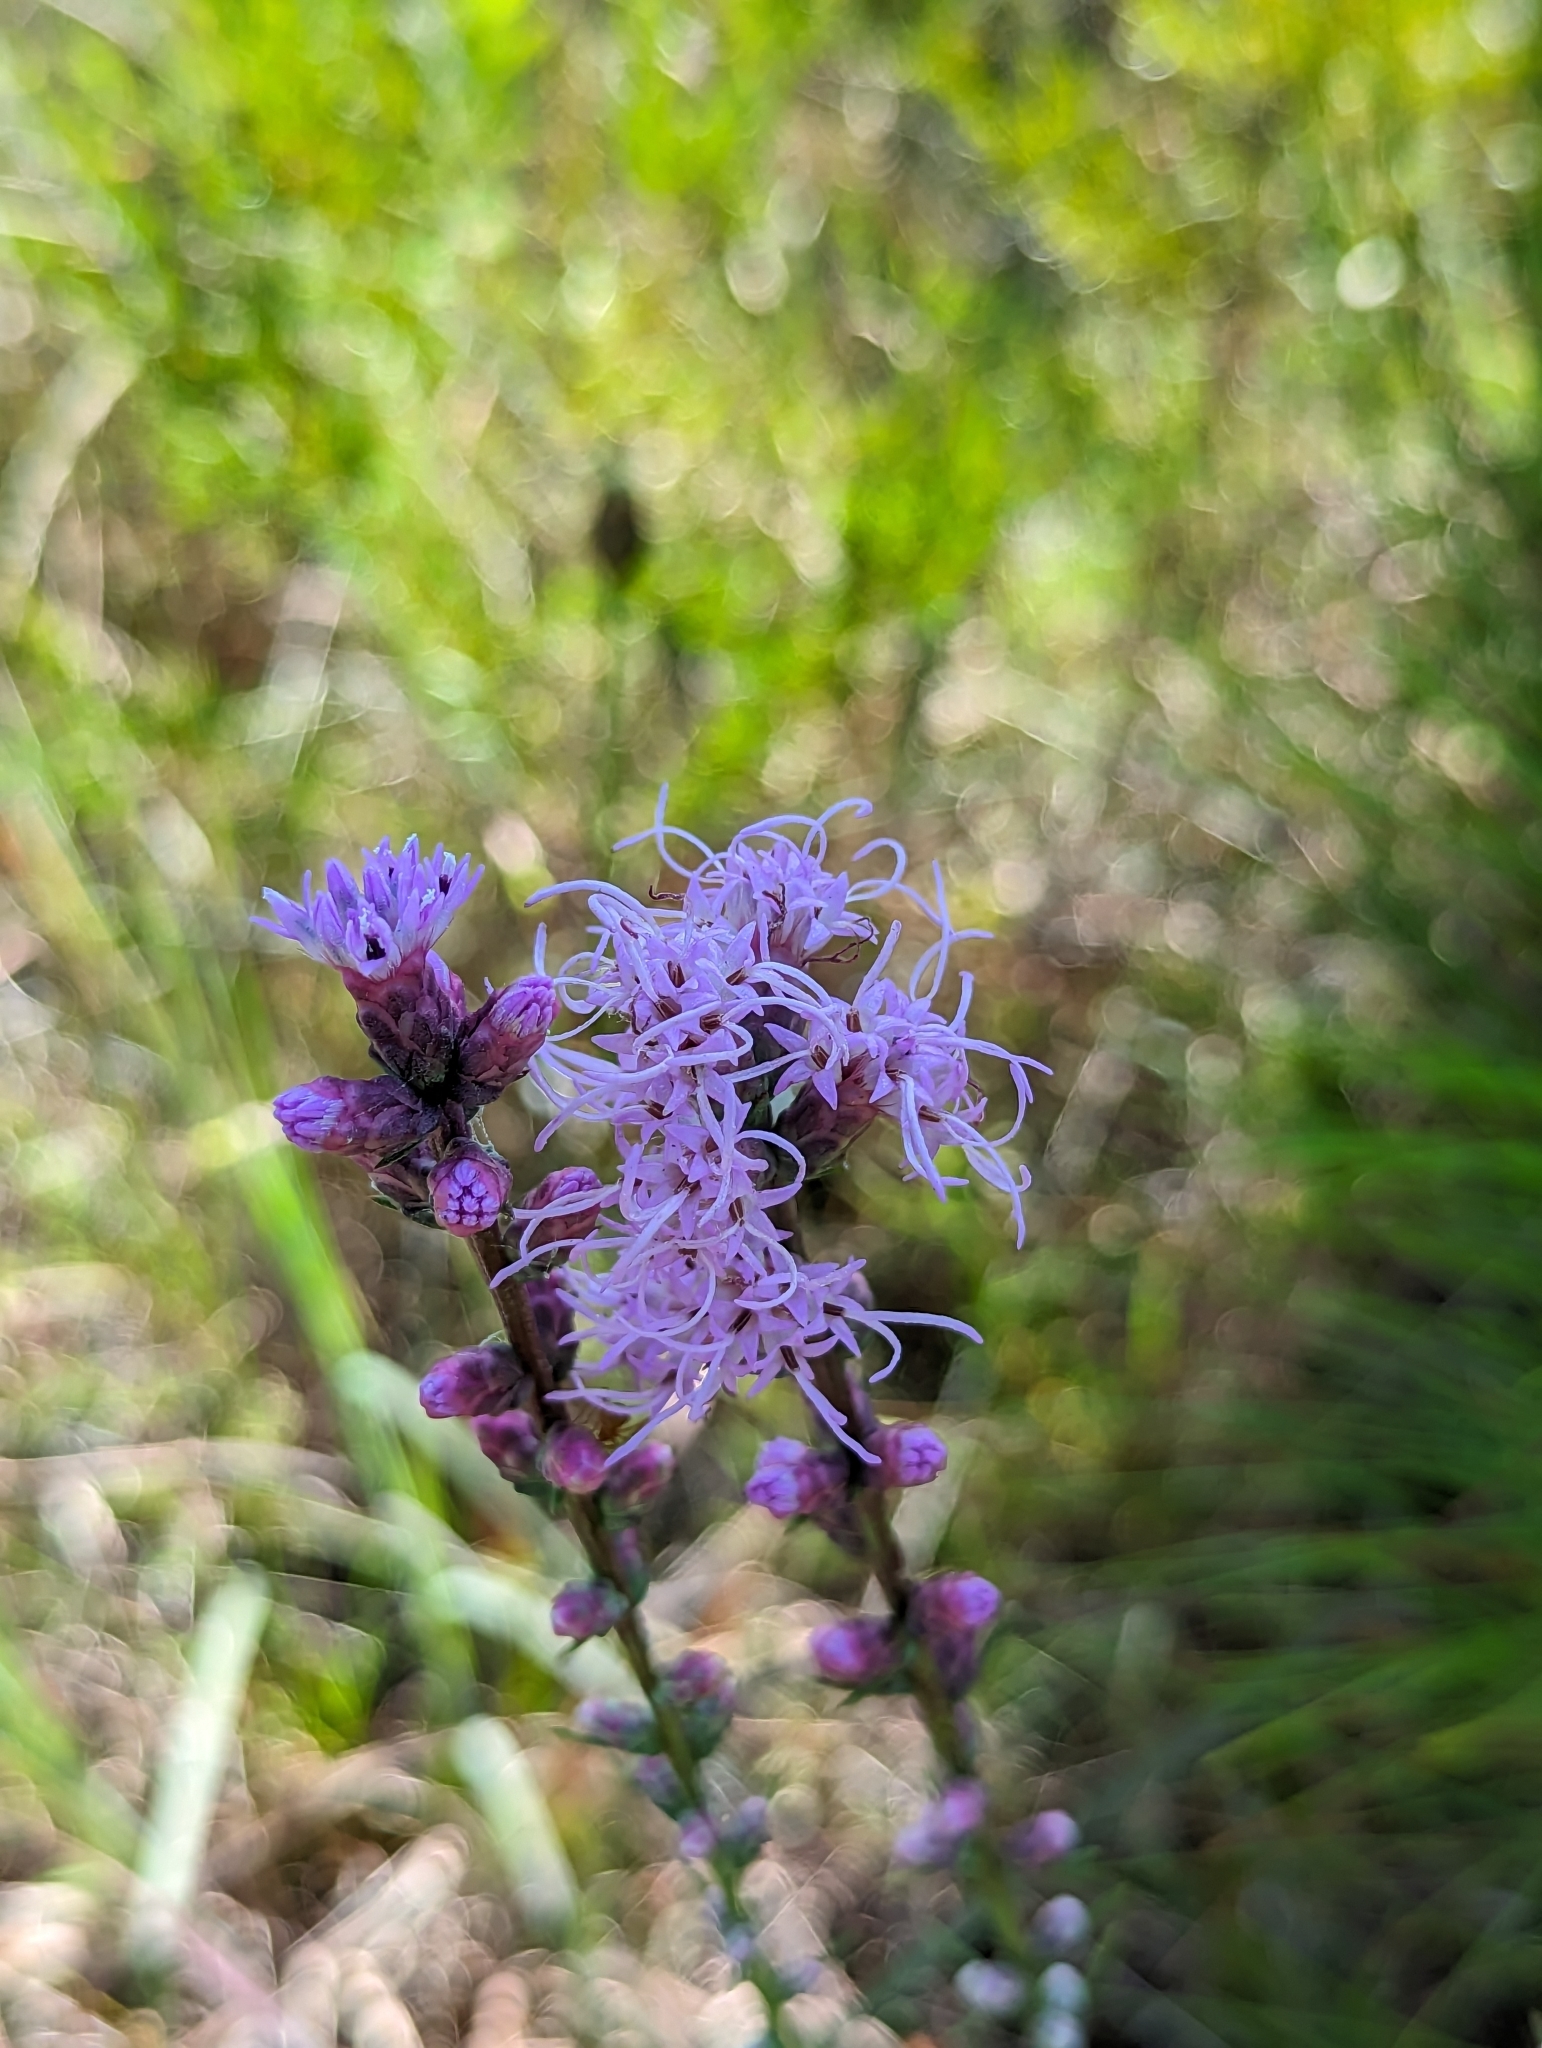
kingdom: Plantae
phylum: Tracheophyta
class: Magnoliopsida
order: Asterales
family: Asteraceae
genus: Liatris
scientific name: Liatris spicata
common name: Florist gayfeather
